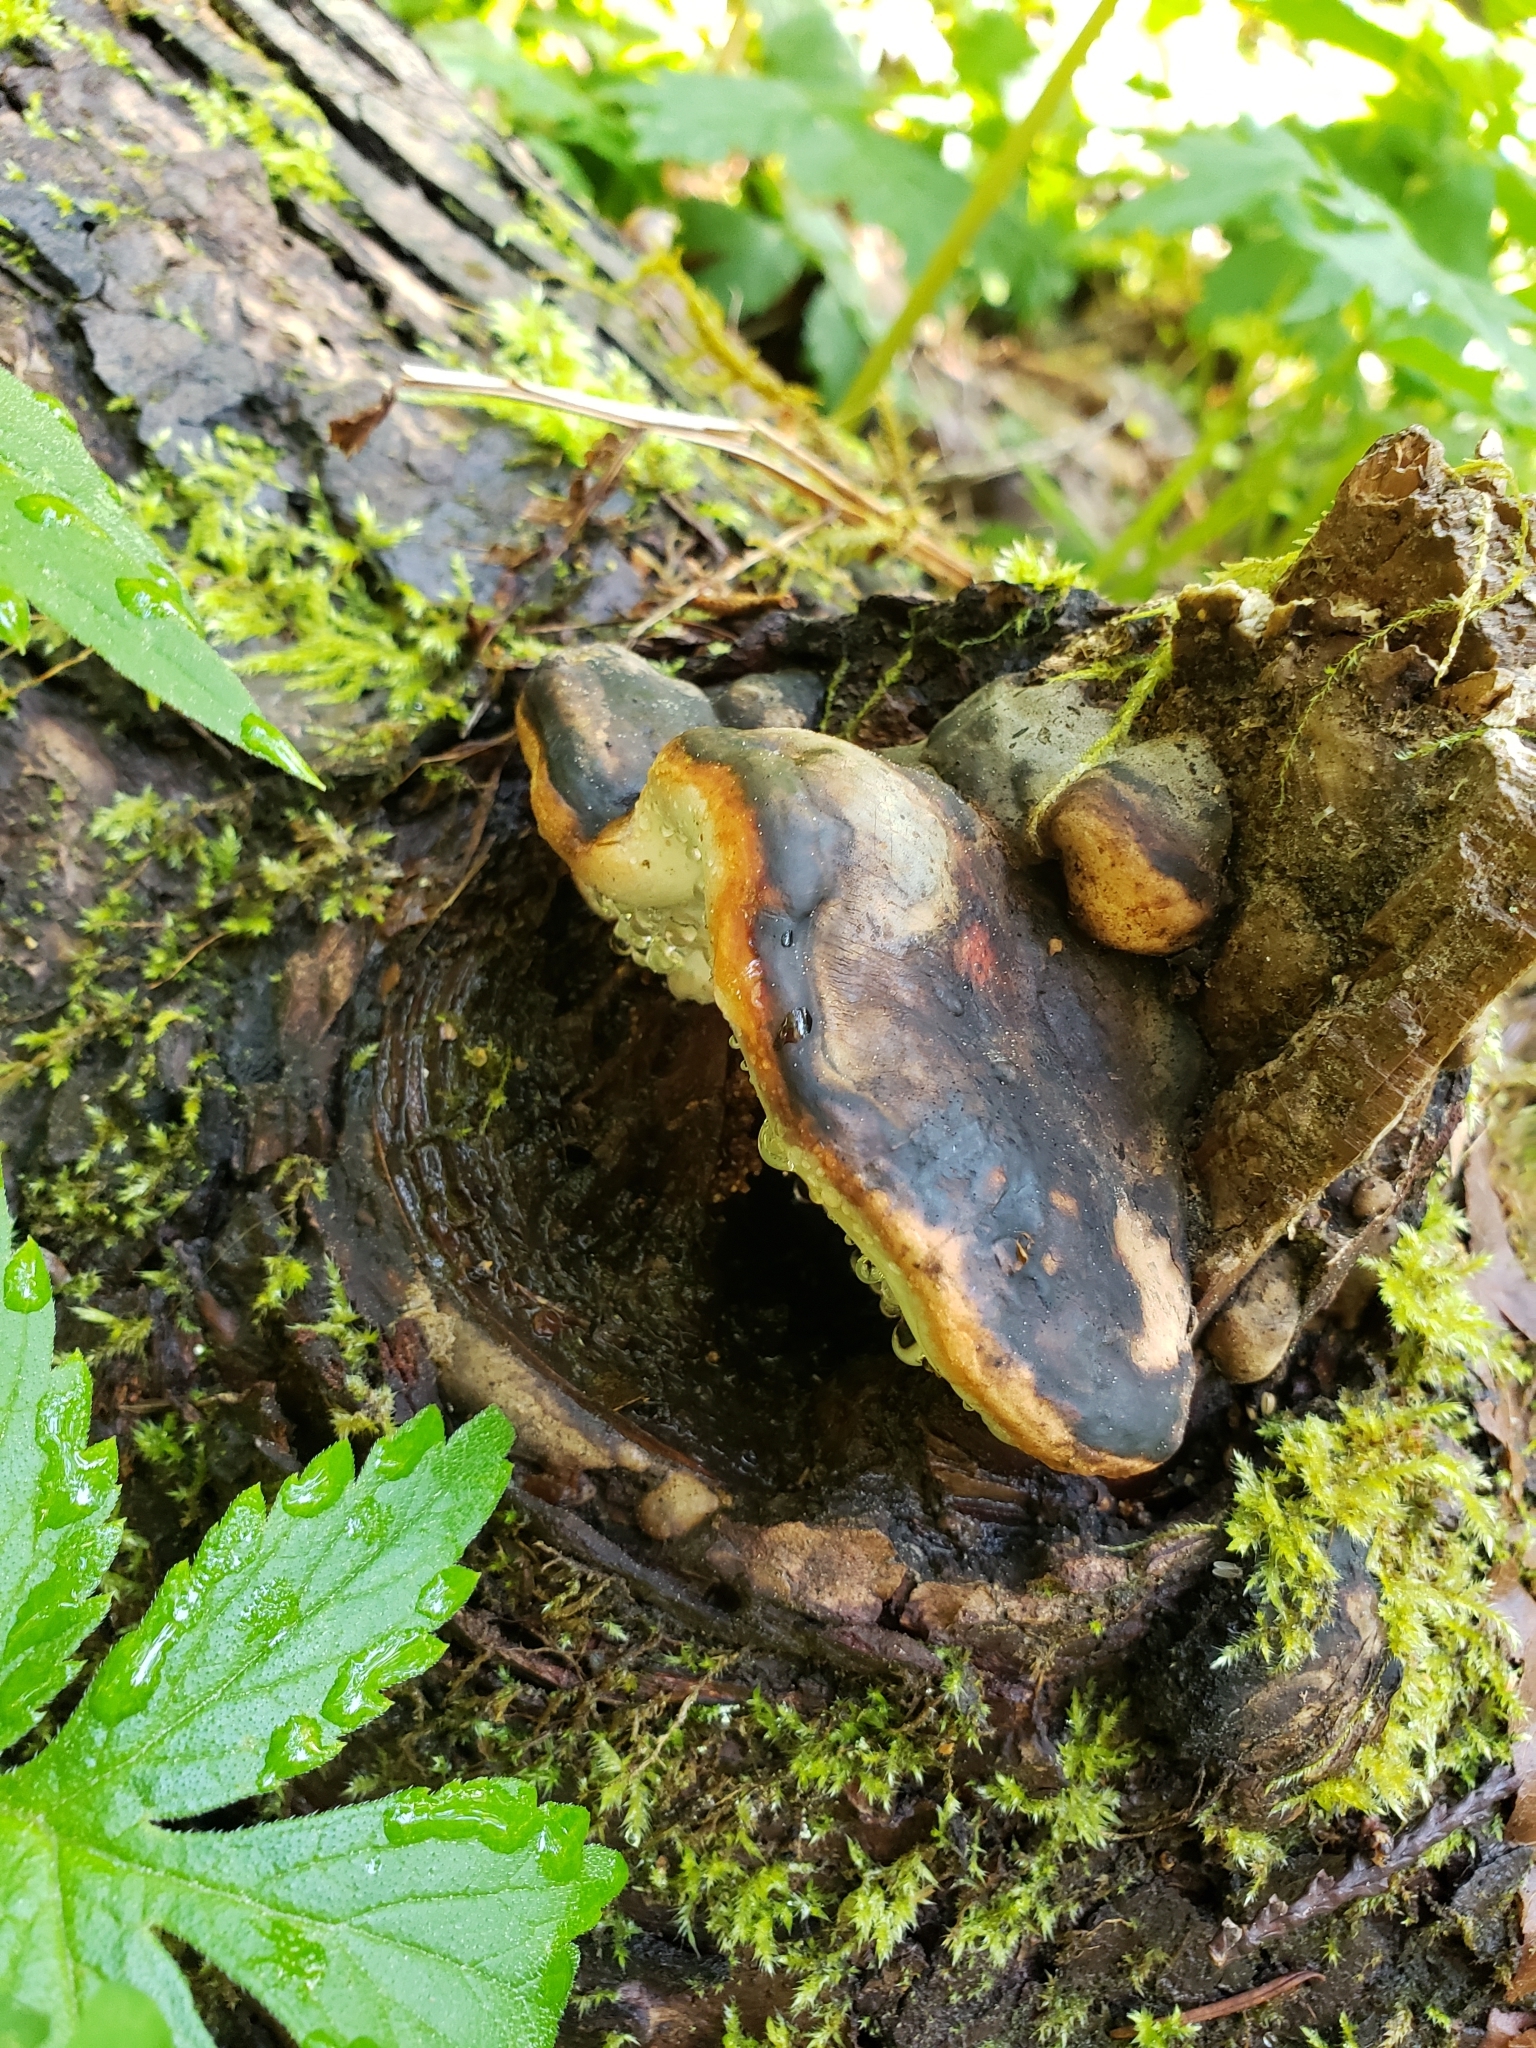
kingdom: Fungi
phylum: Basidiomycota
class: Agaricomycetes
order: Polyporales
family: Fomitopsidaceae
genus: Fomitopsis
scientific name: Fomitopsis mounceae
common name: Northern red belt
